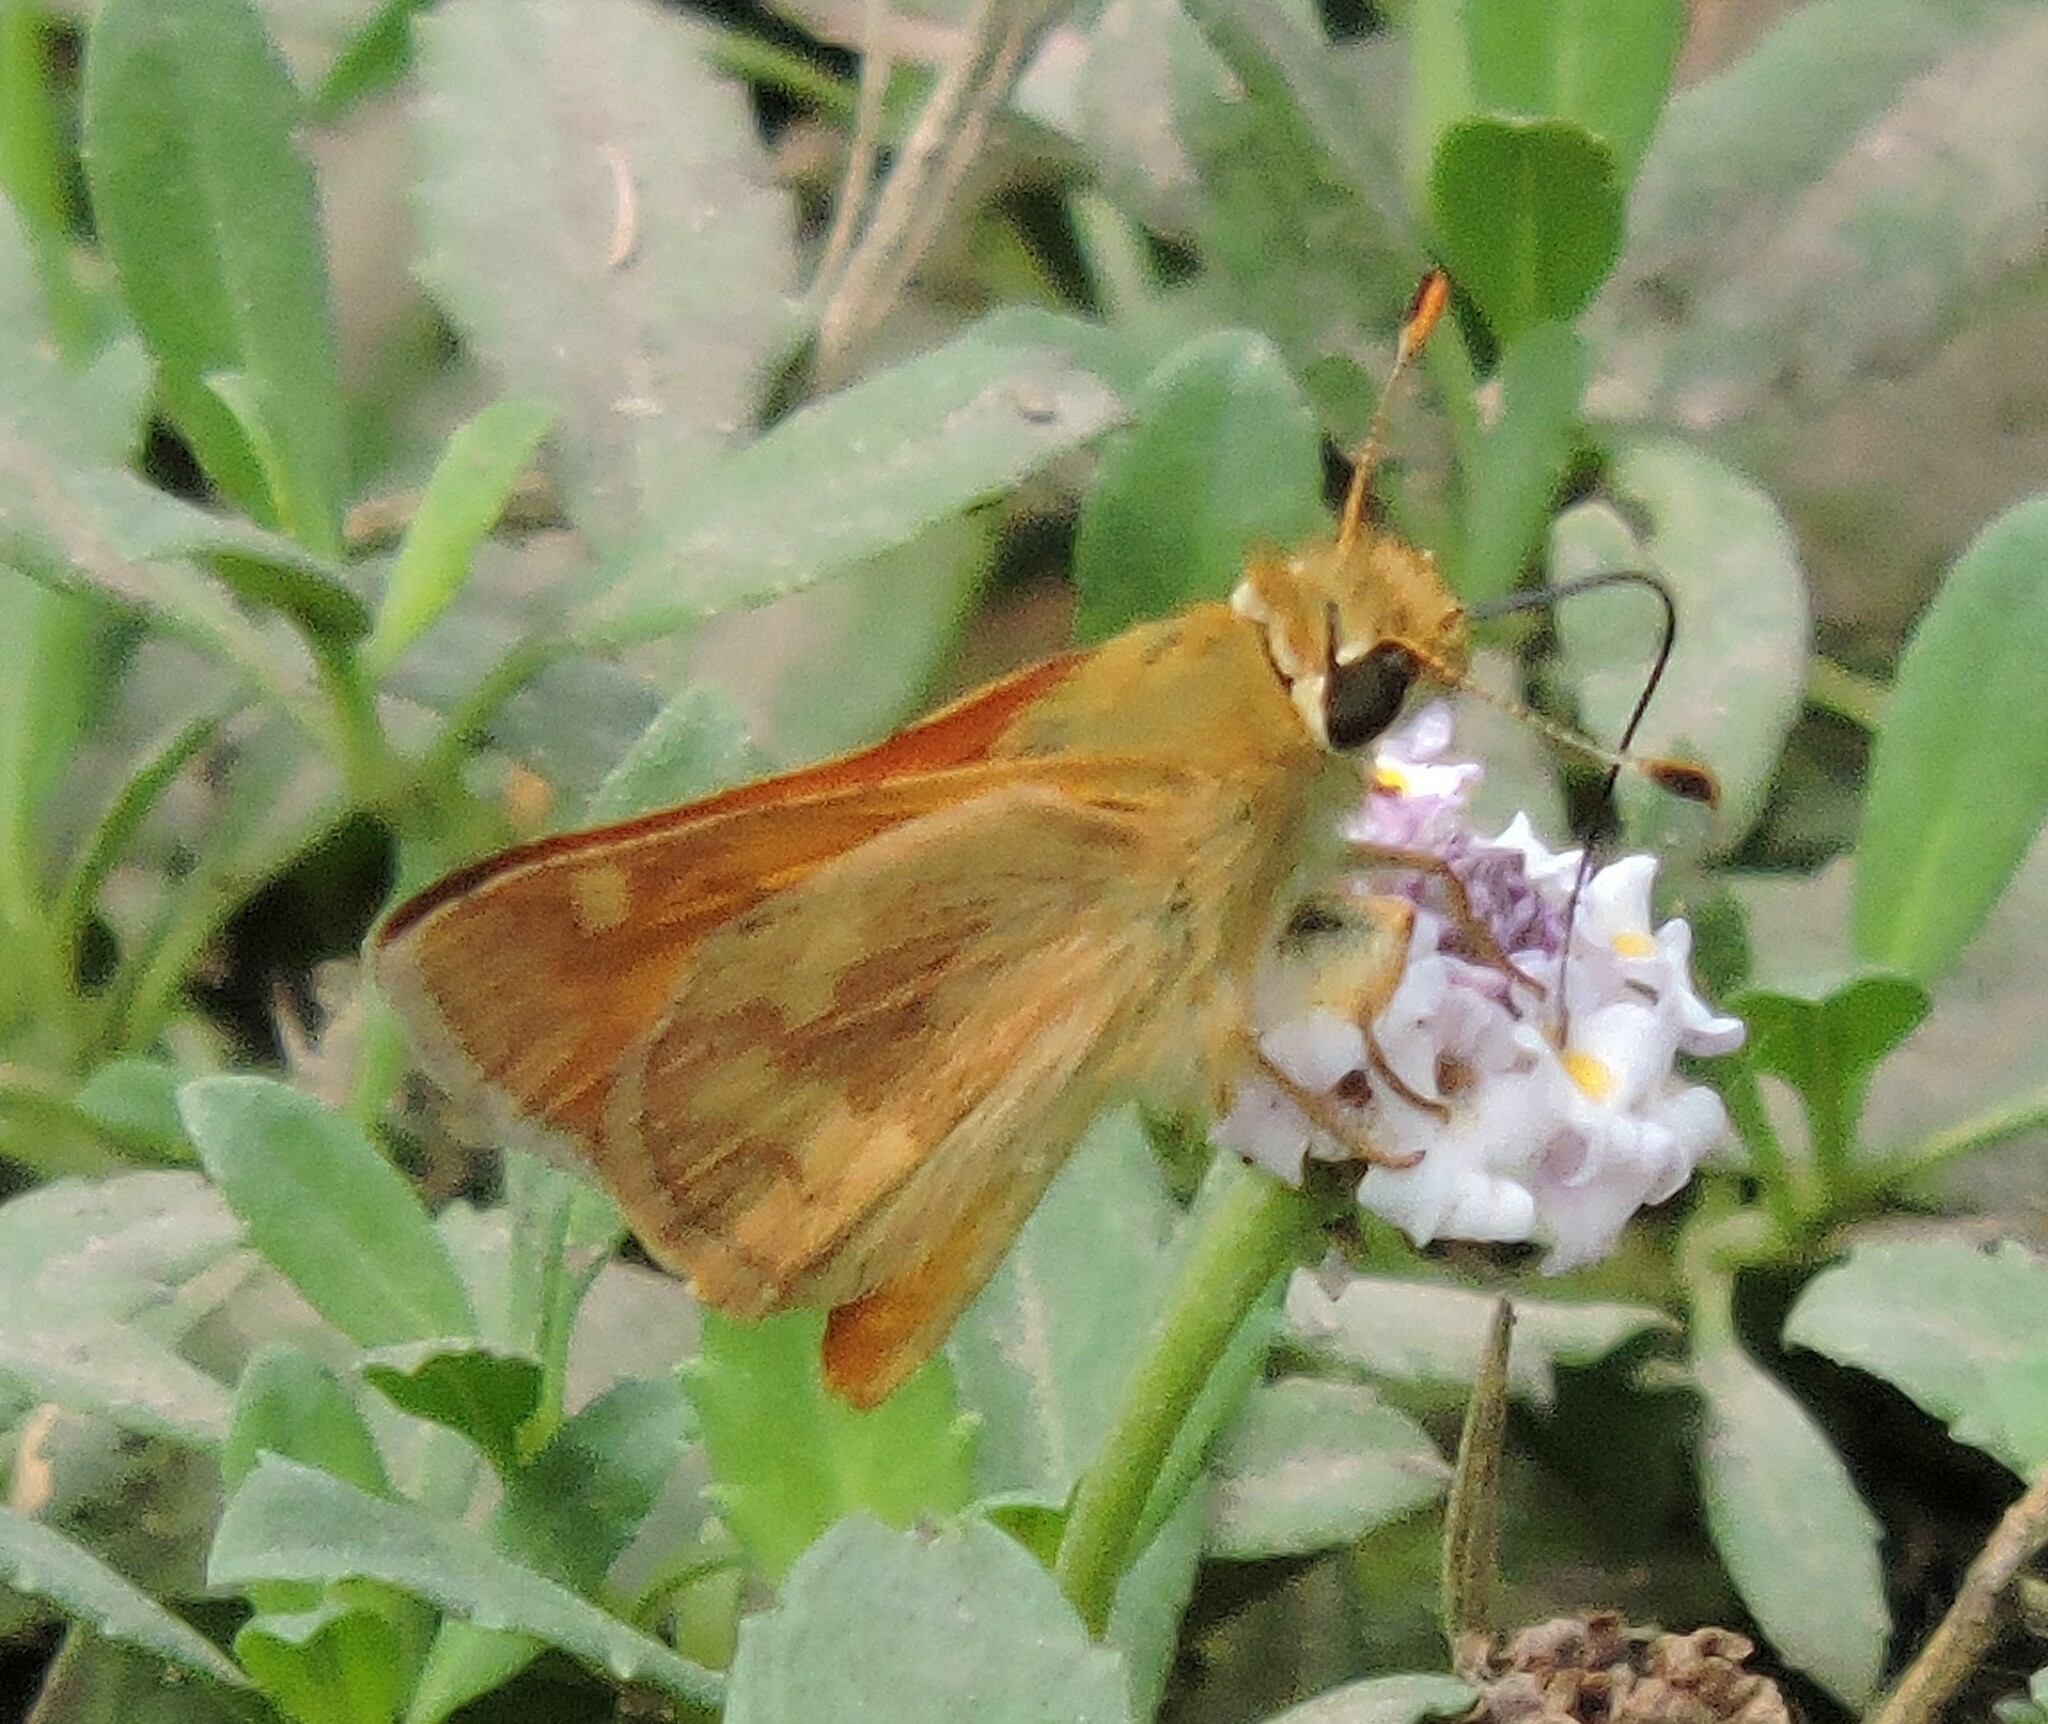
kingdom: Animalia
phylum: Arthropoda
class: Insecta
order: Lepidoptera
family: Hesperiidae
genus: Ochlodes
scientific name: Ochlodes sylvanoides
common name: Woodland skipper
